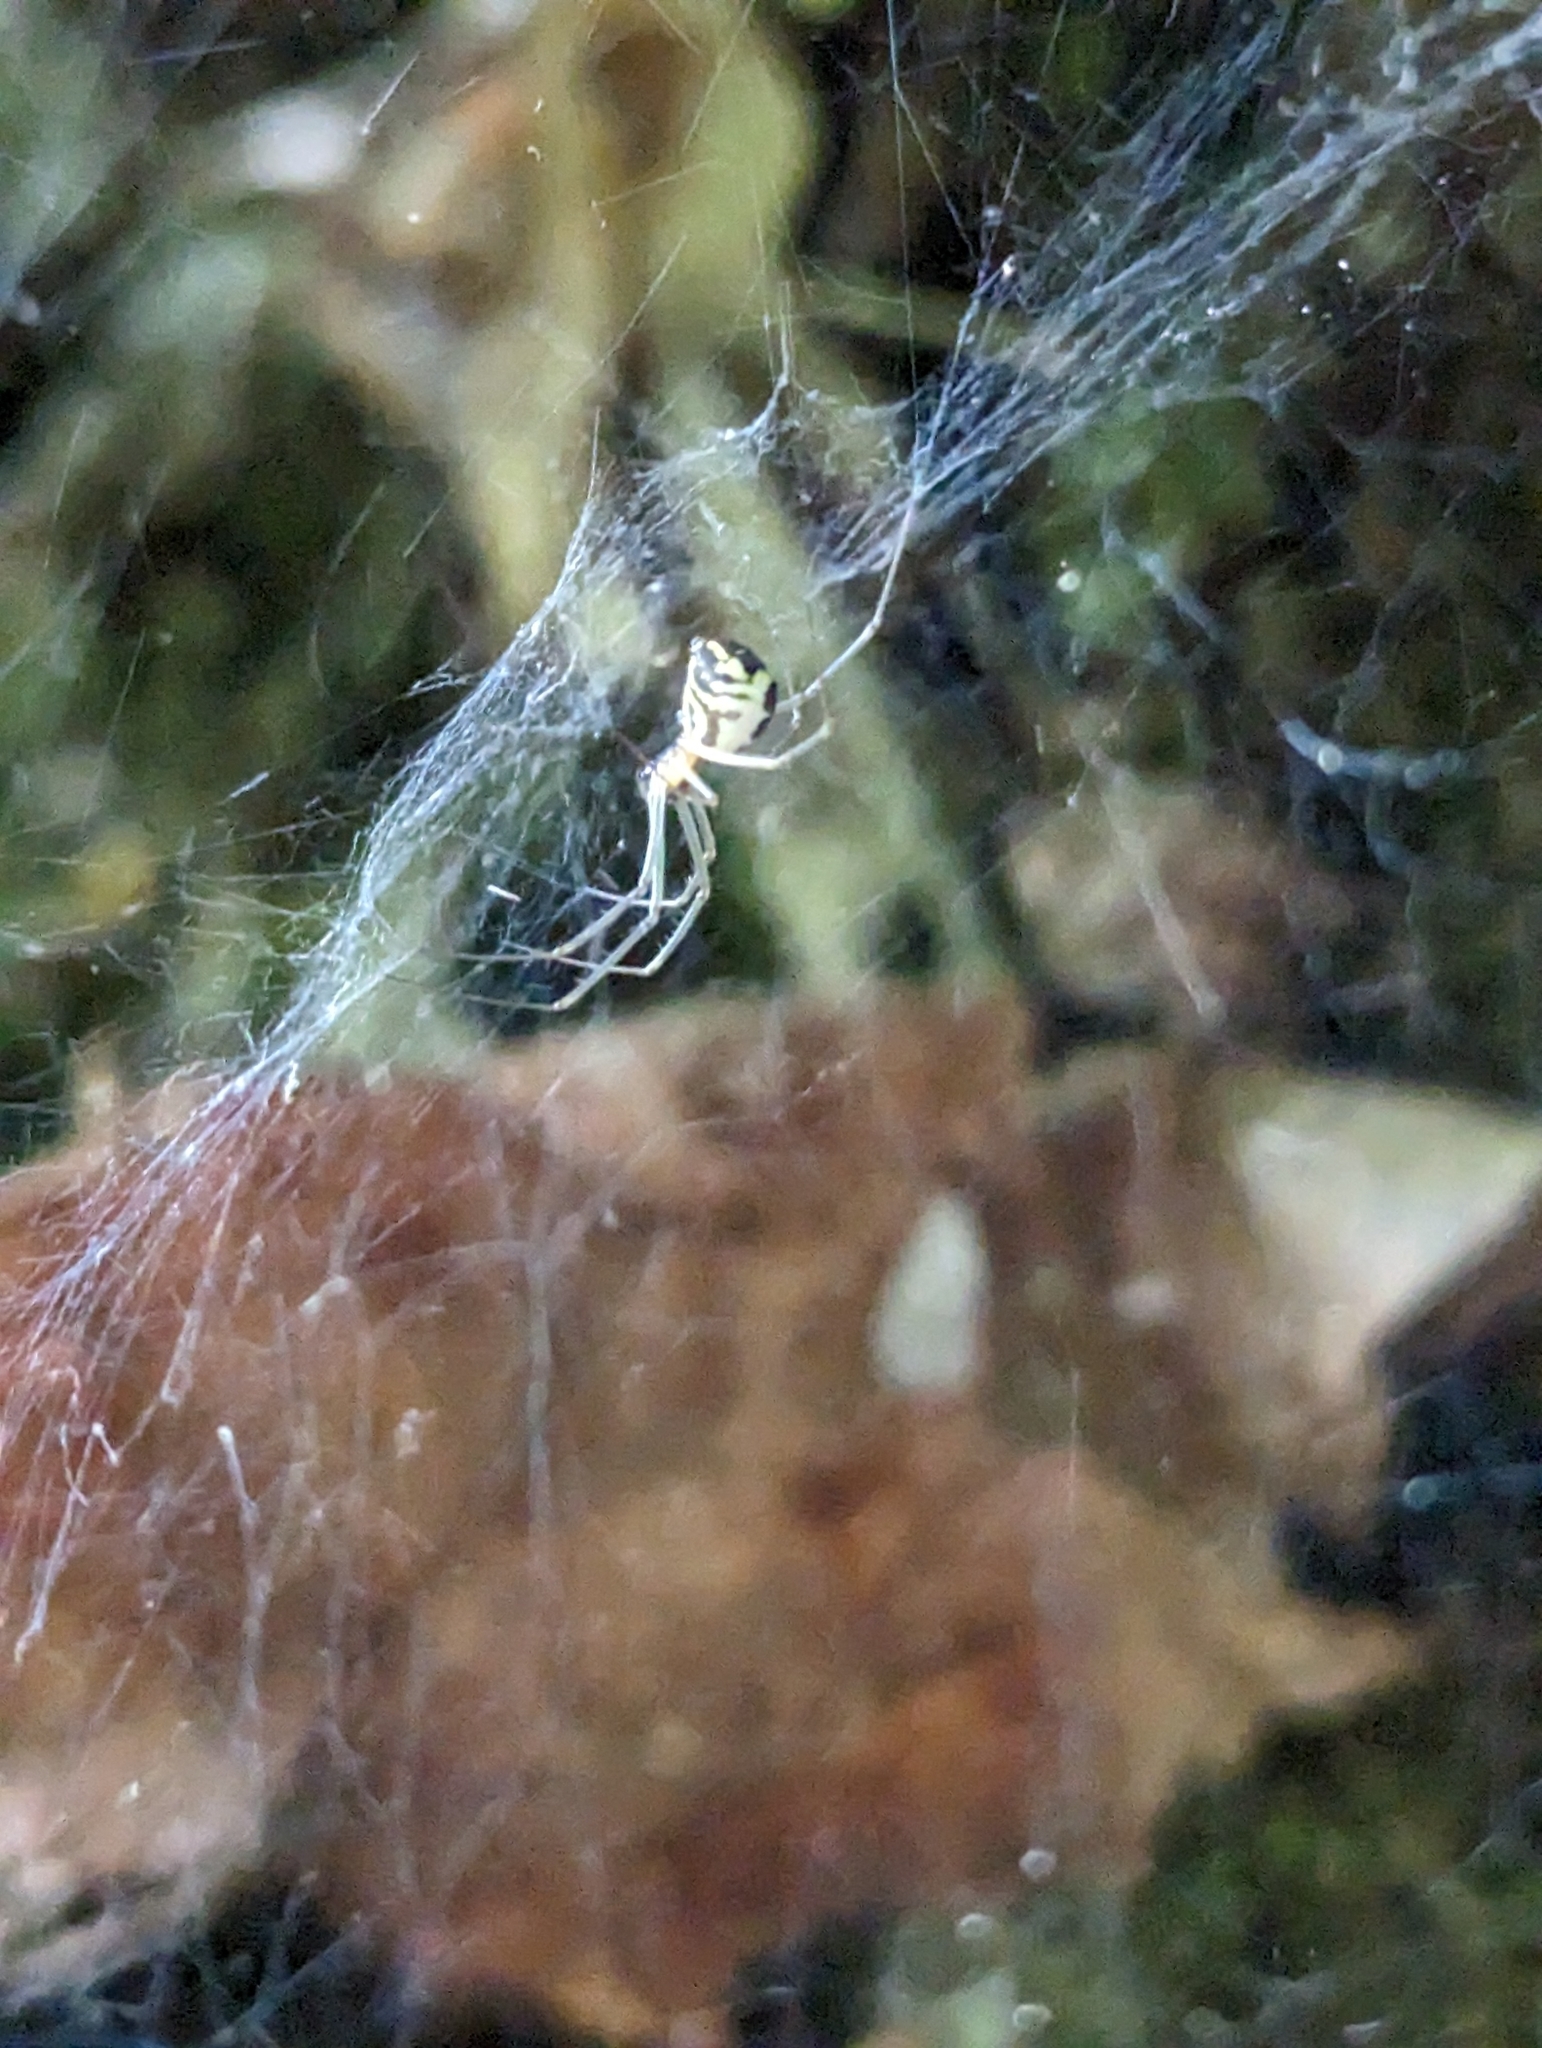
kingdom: Animalia
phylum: Arthropoda
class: Arachnida
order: Araneae
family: Linyphiidae
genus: Neriene
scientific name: Neriene radiata
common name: Filmy dome spider
